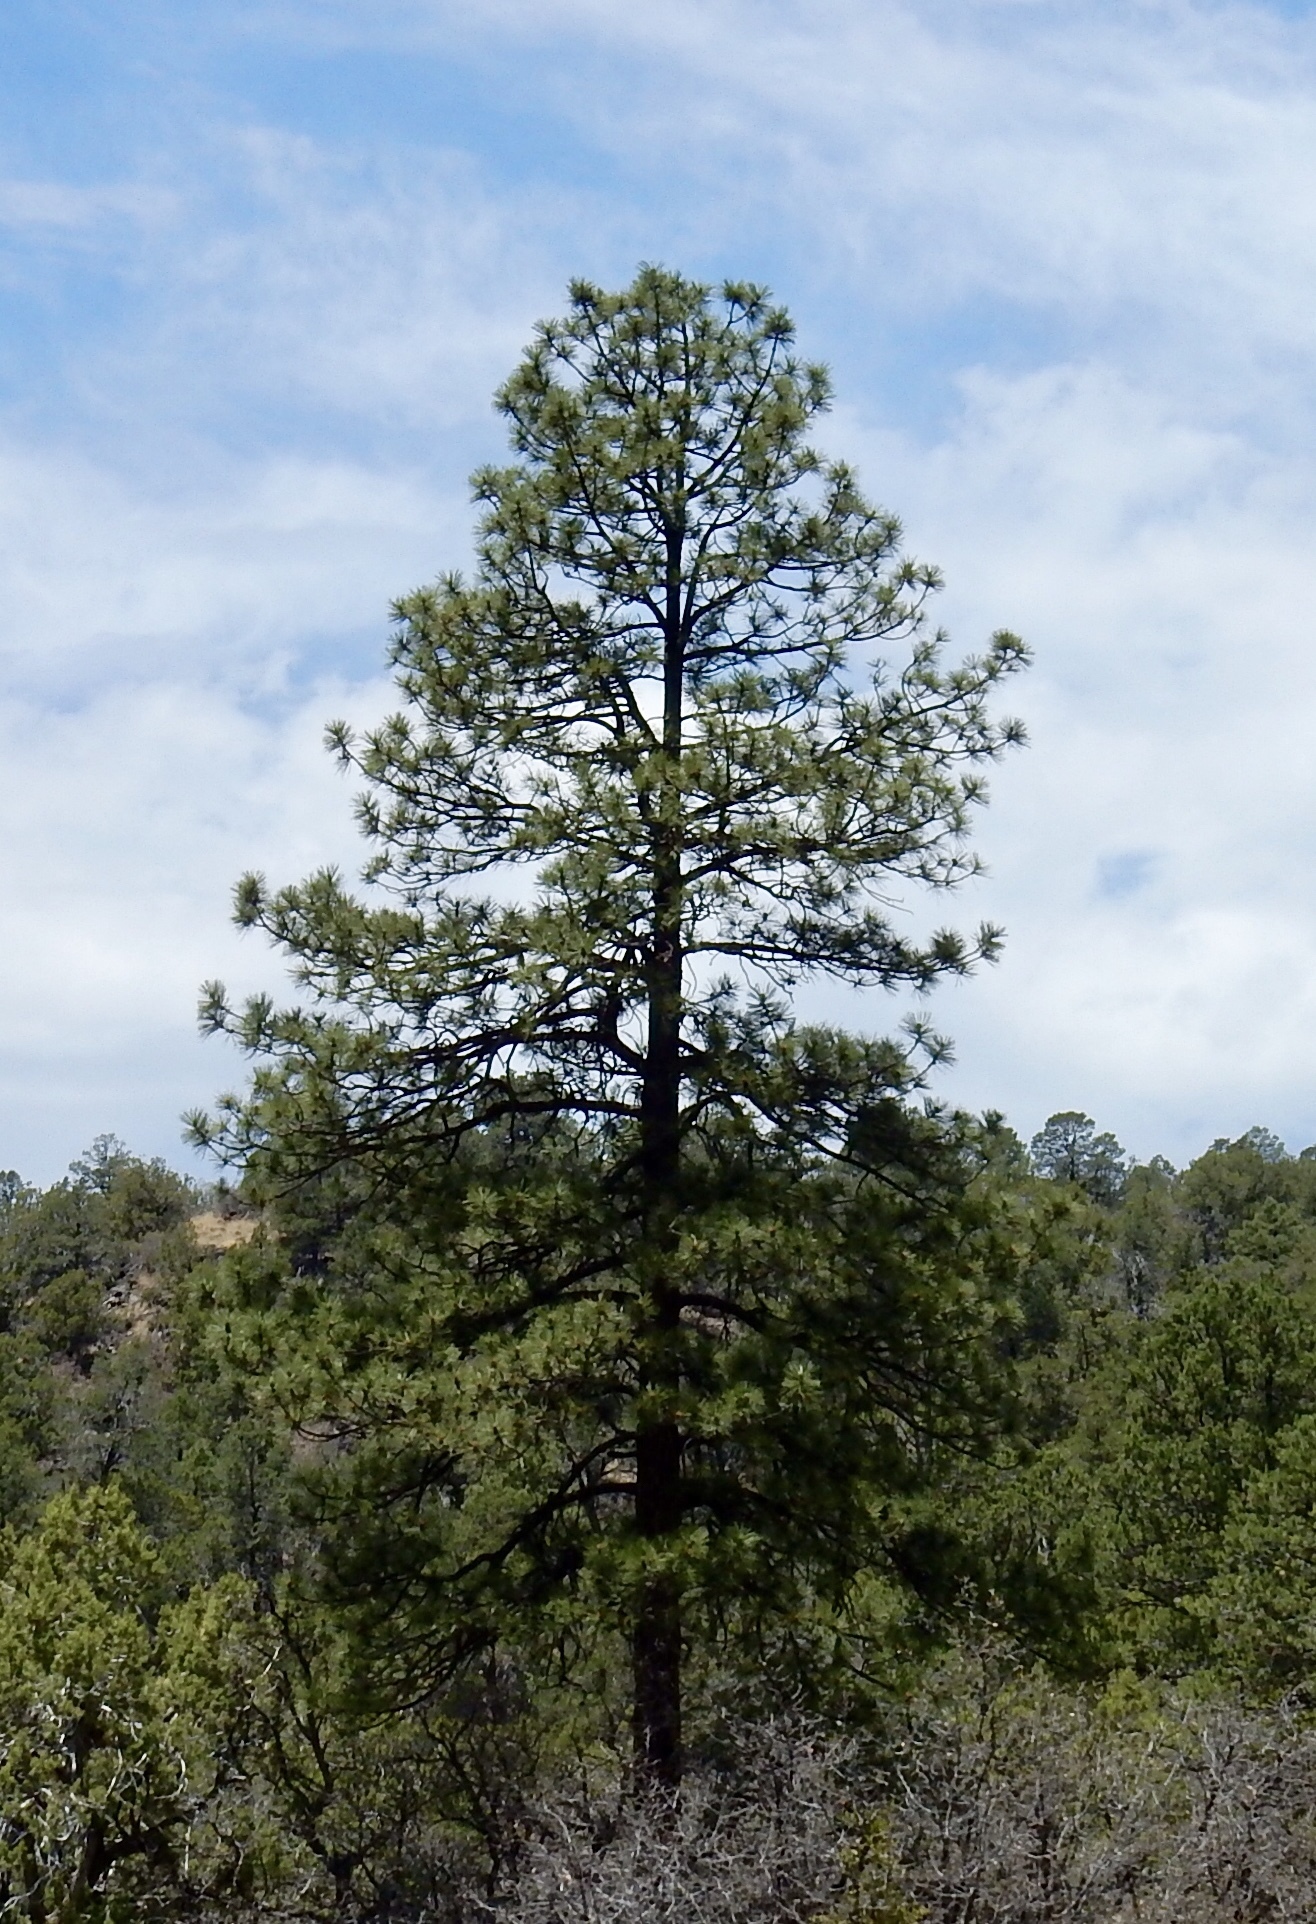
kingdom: Plantae
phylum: Tracheophyta
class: Pinopsida
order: Pinales
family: Pinaceae
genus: Pinus
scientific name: Pinus ponderosa
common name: Western yellow-pine
